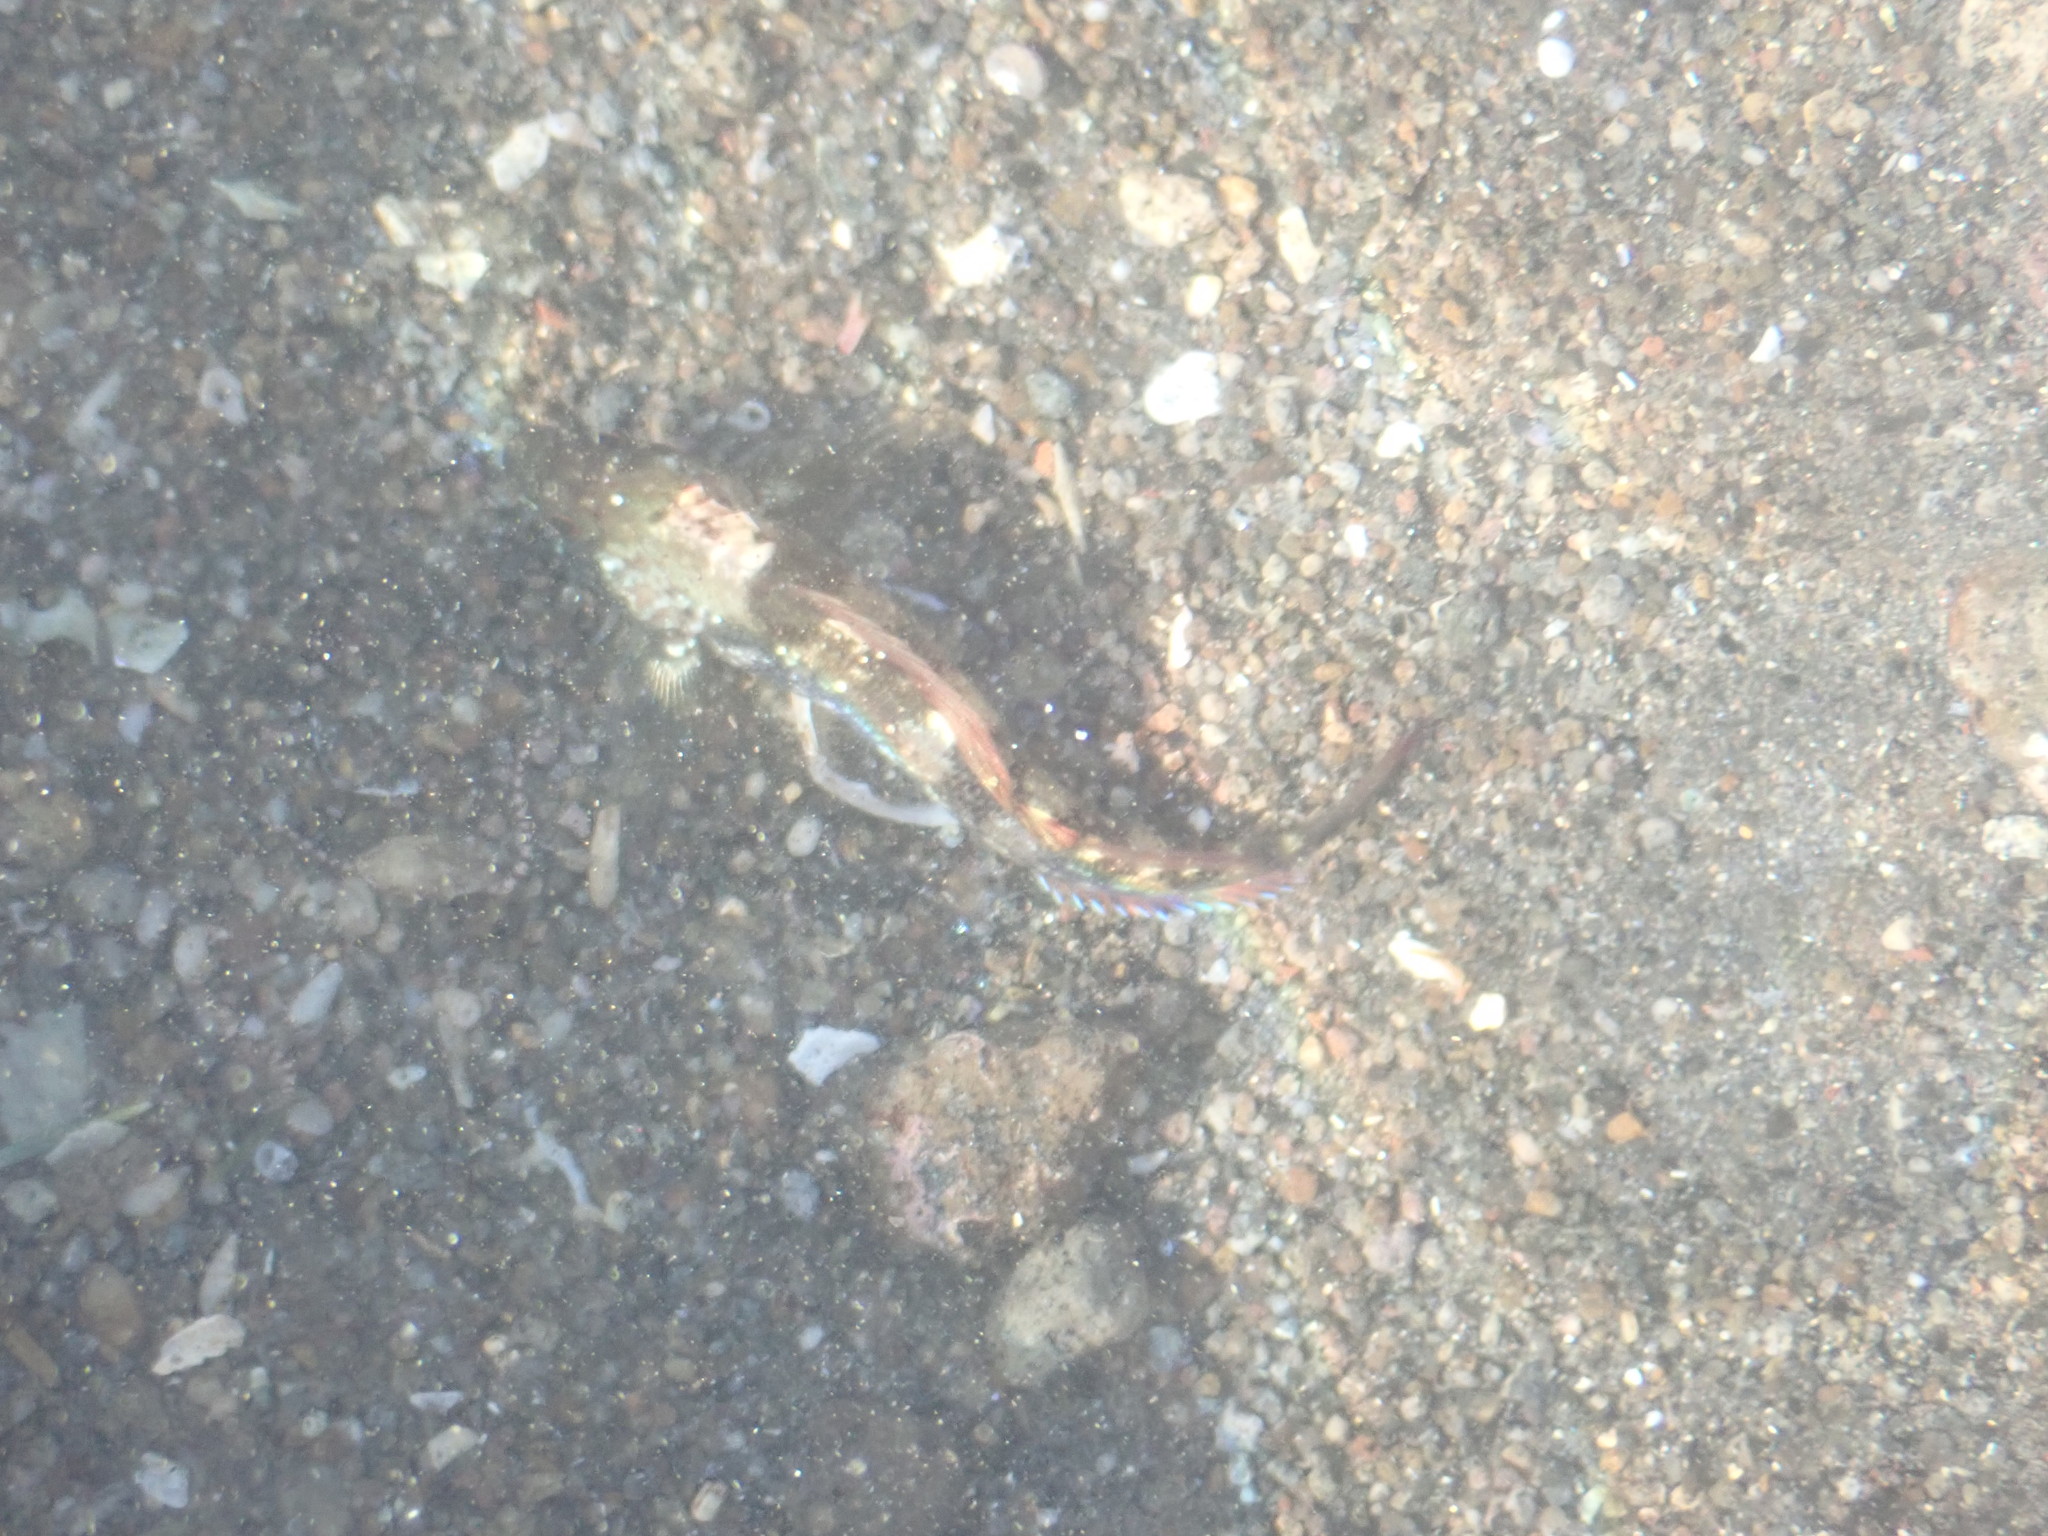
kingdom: Animalia
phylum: Chordata
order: Perciformes
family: Tripterygiidae
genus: Forsterygion
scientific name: Forsterygion lapillum
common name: Common triplefin
